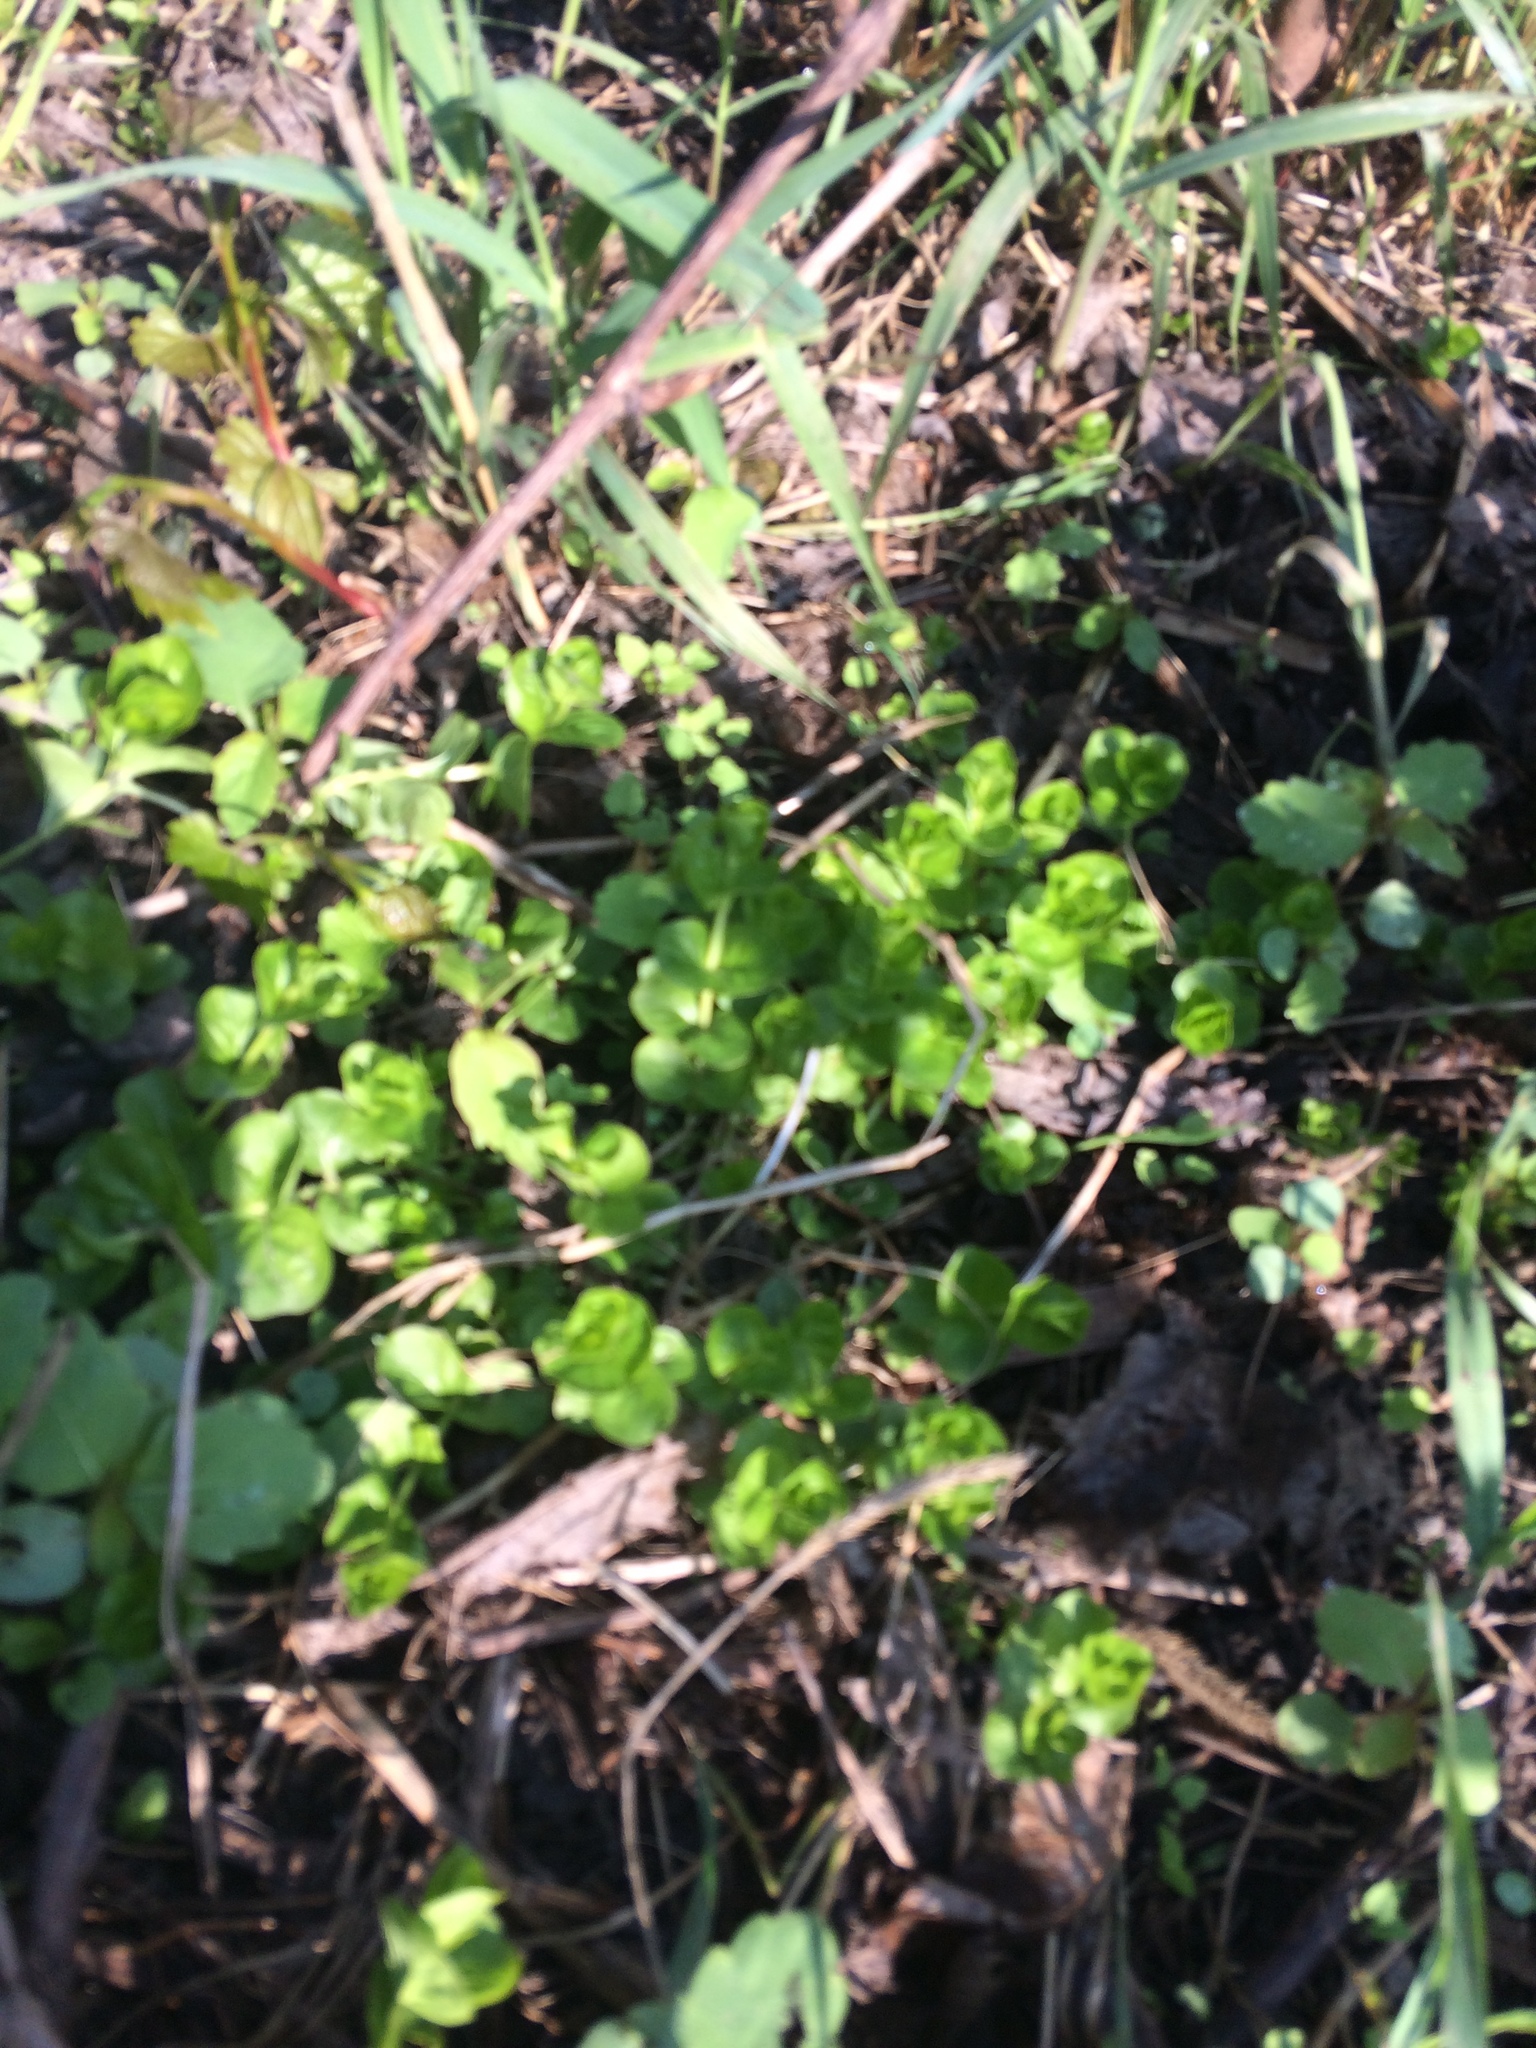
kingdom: Plantae
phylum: Tracheophyta
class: Magnoliopsida
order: Ericales
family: Primulaceae
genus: Lysimachia
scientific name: Lysimachia nummularia
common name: Moneywort
